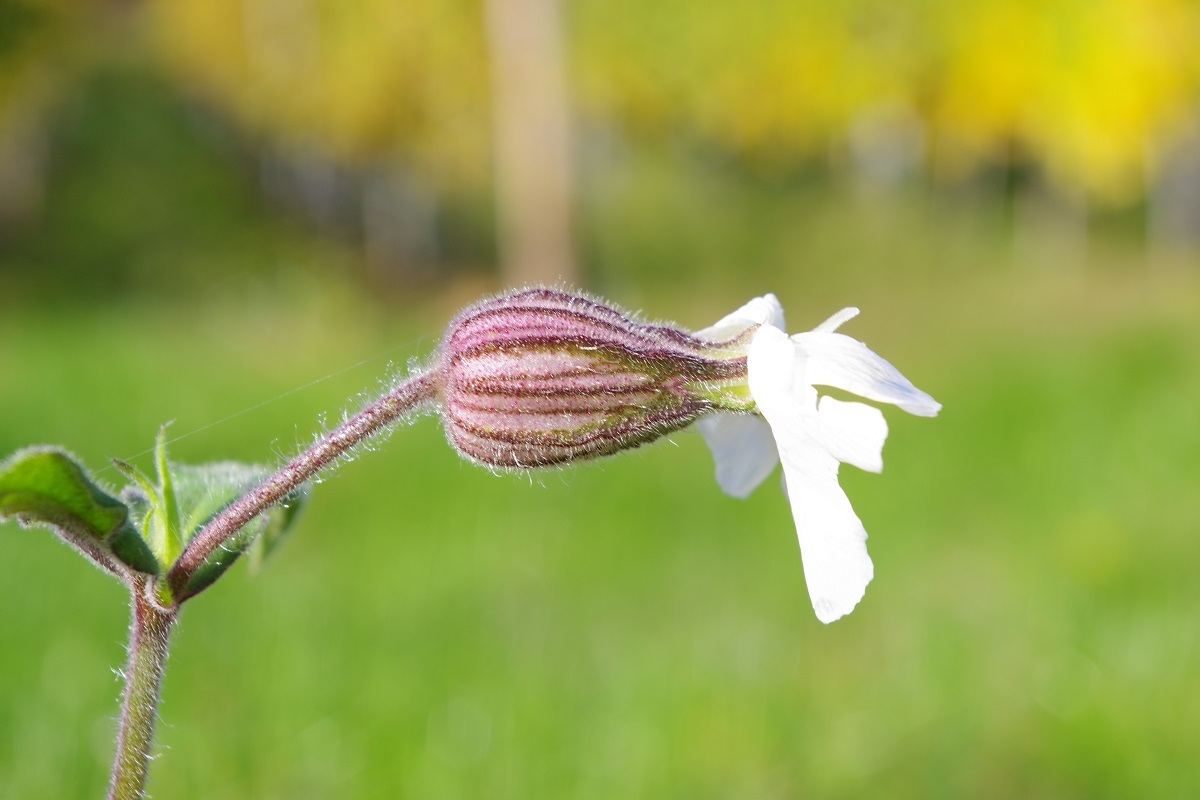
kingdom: Plantae
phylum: Tracheophyta
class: Magnoliopsida
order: Caryophyllales
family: Caryophyllaceae
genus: Silene
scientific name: Silene latifolia
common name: White campion
